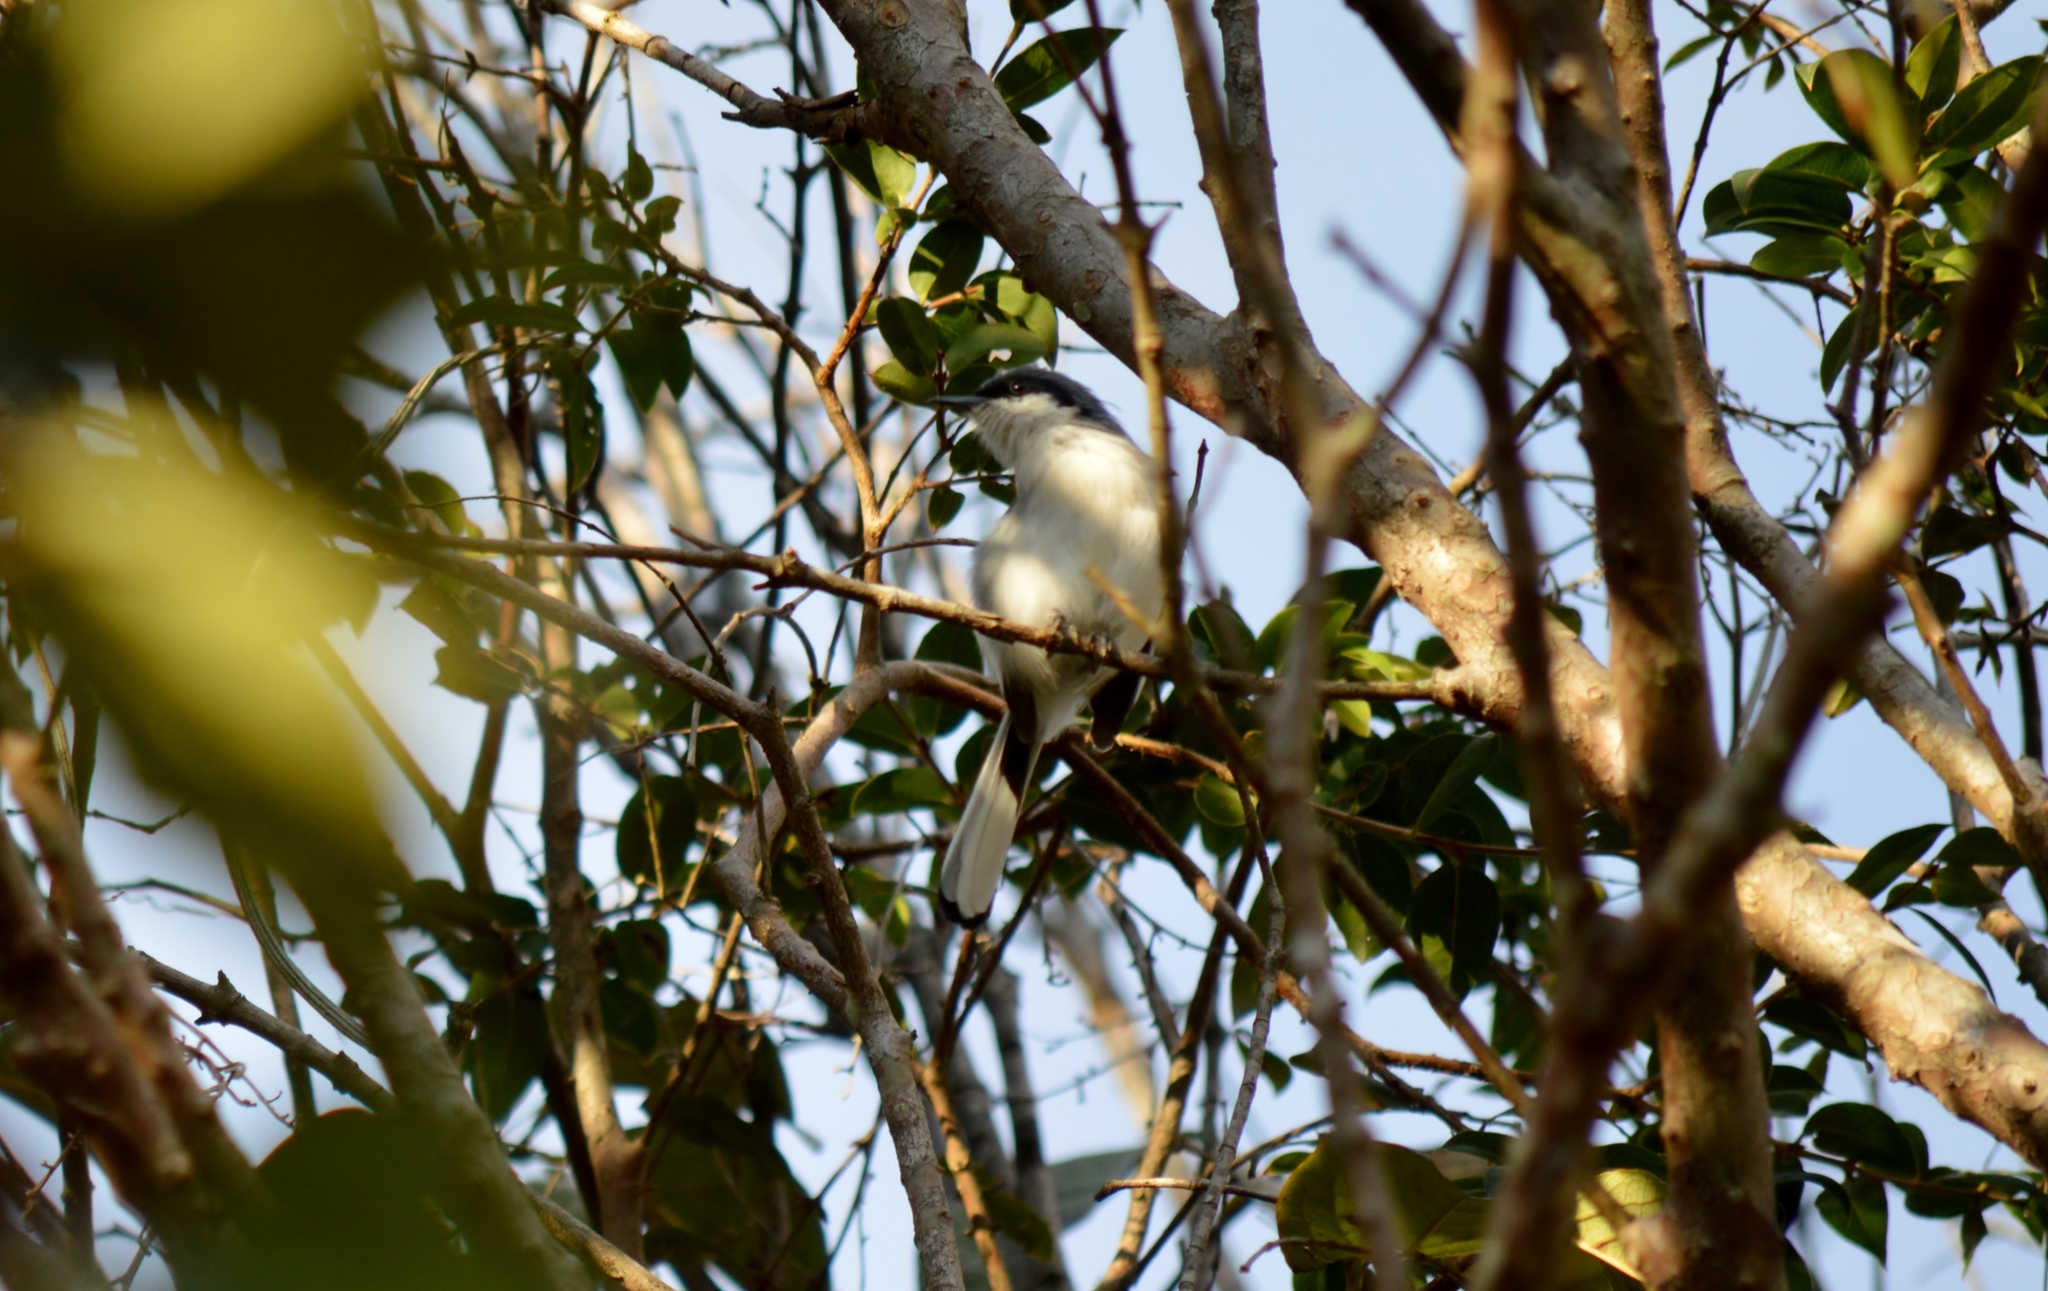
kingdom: Animalia
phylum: Chordata
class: Aves
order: Passeriformes
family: Polioptilidae
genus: Polioptila
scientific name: Polioptila dumicola
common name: Masked gnatcatcher
